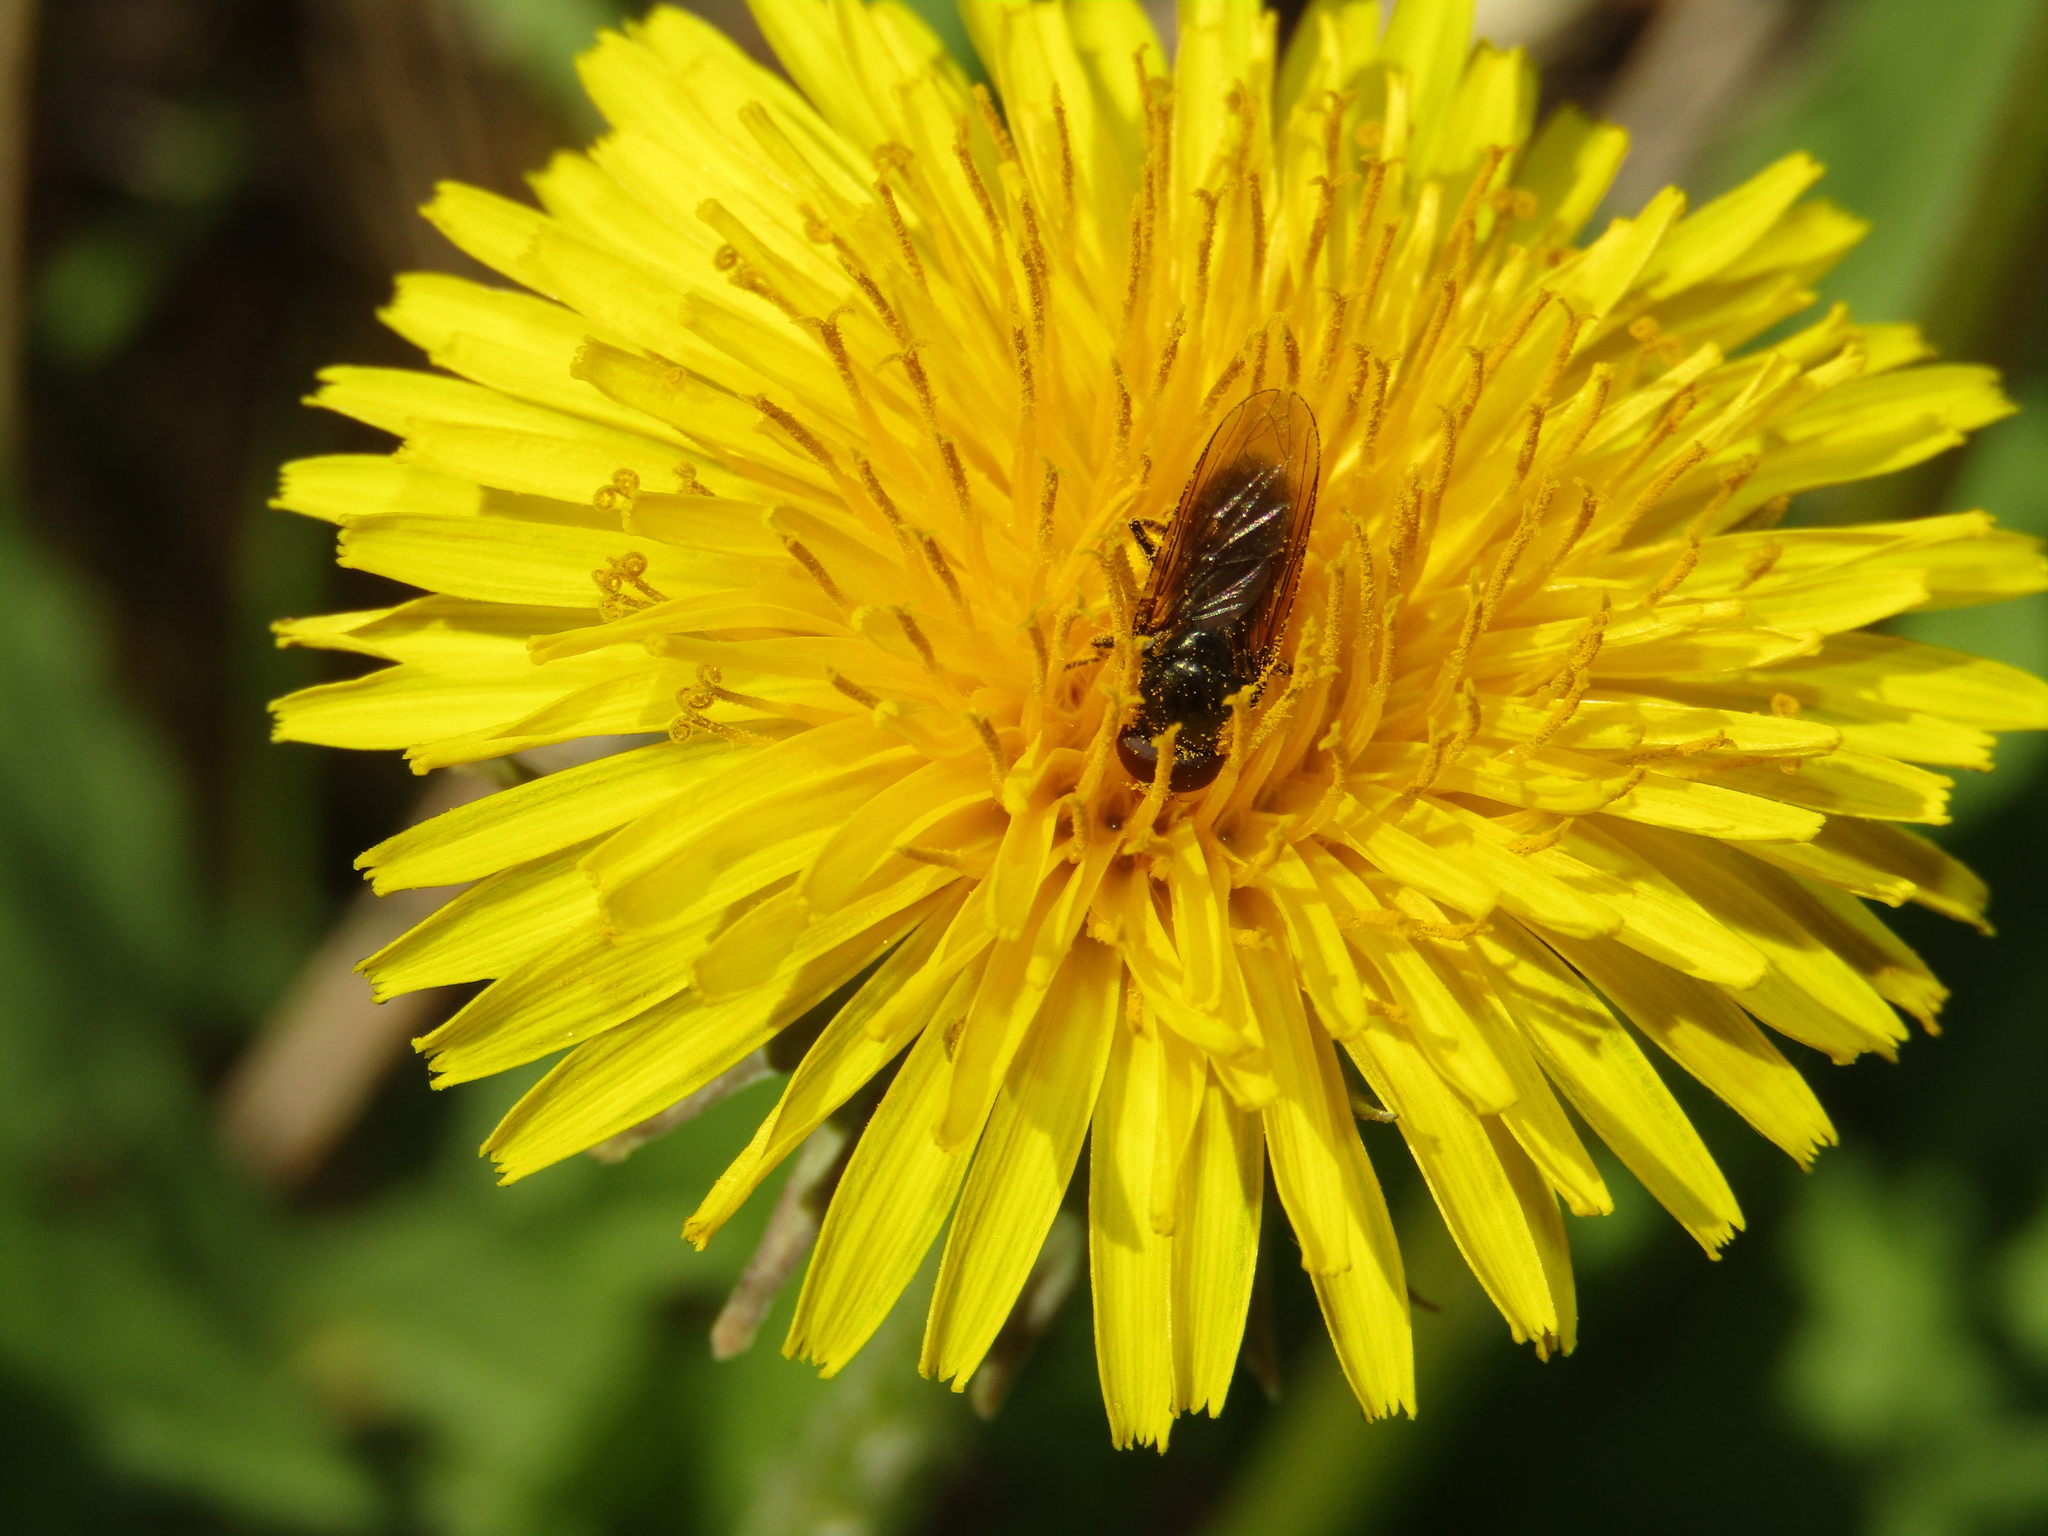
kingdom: Plantae
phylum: Tracheophyta
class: Magnoliopsida
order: Asterales
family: Asteraceae
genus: Taraxacum
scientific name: Taraxacum officinale
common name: Common dandelion
